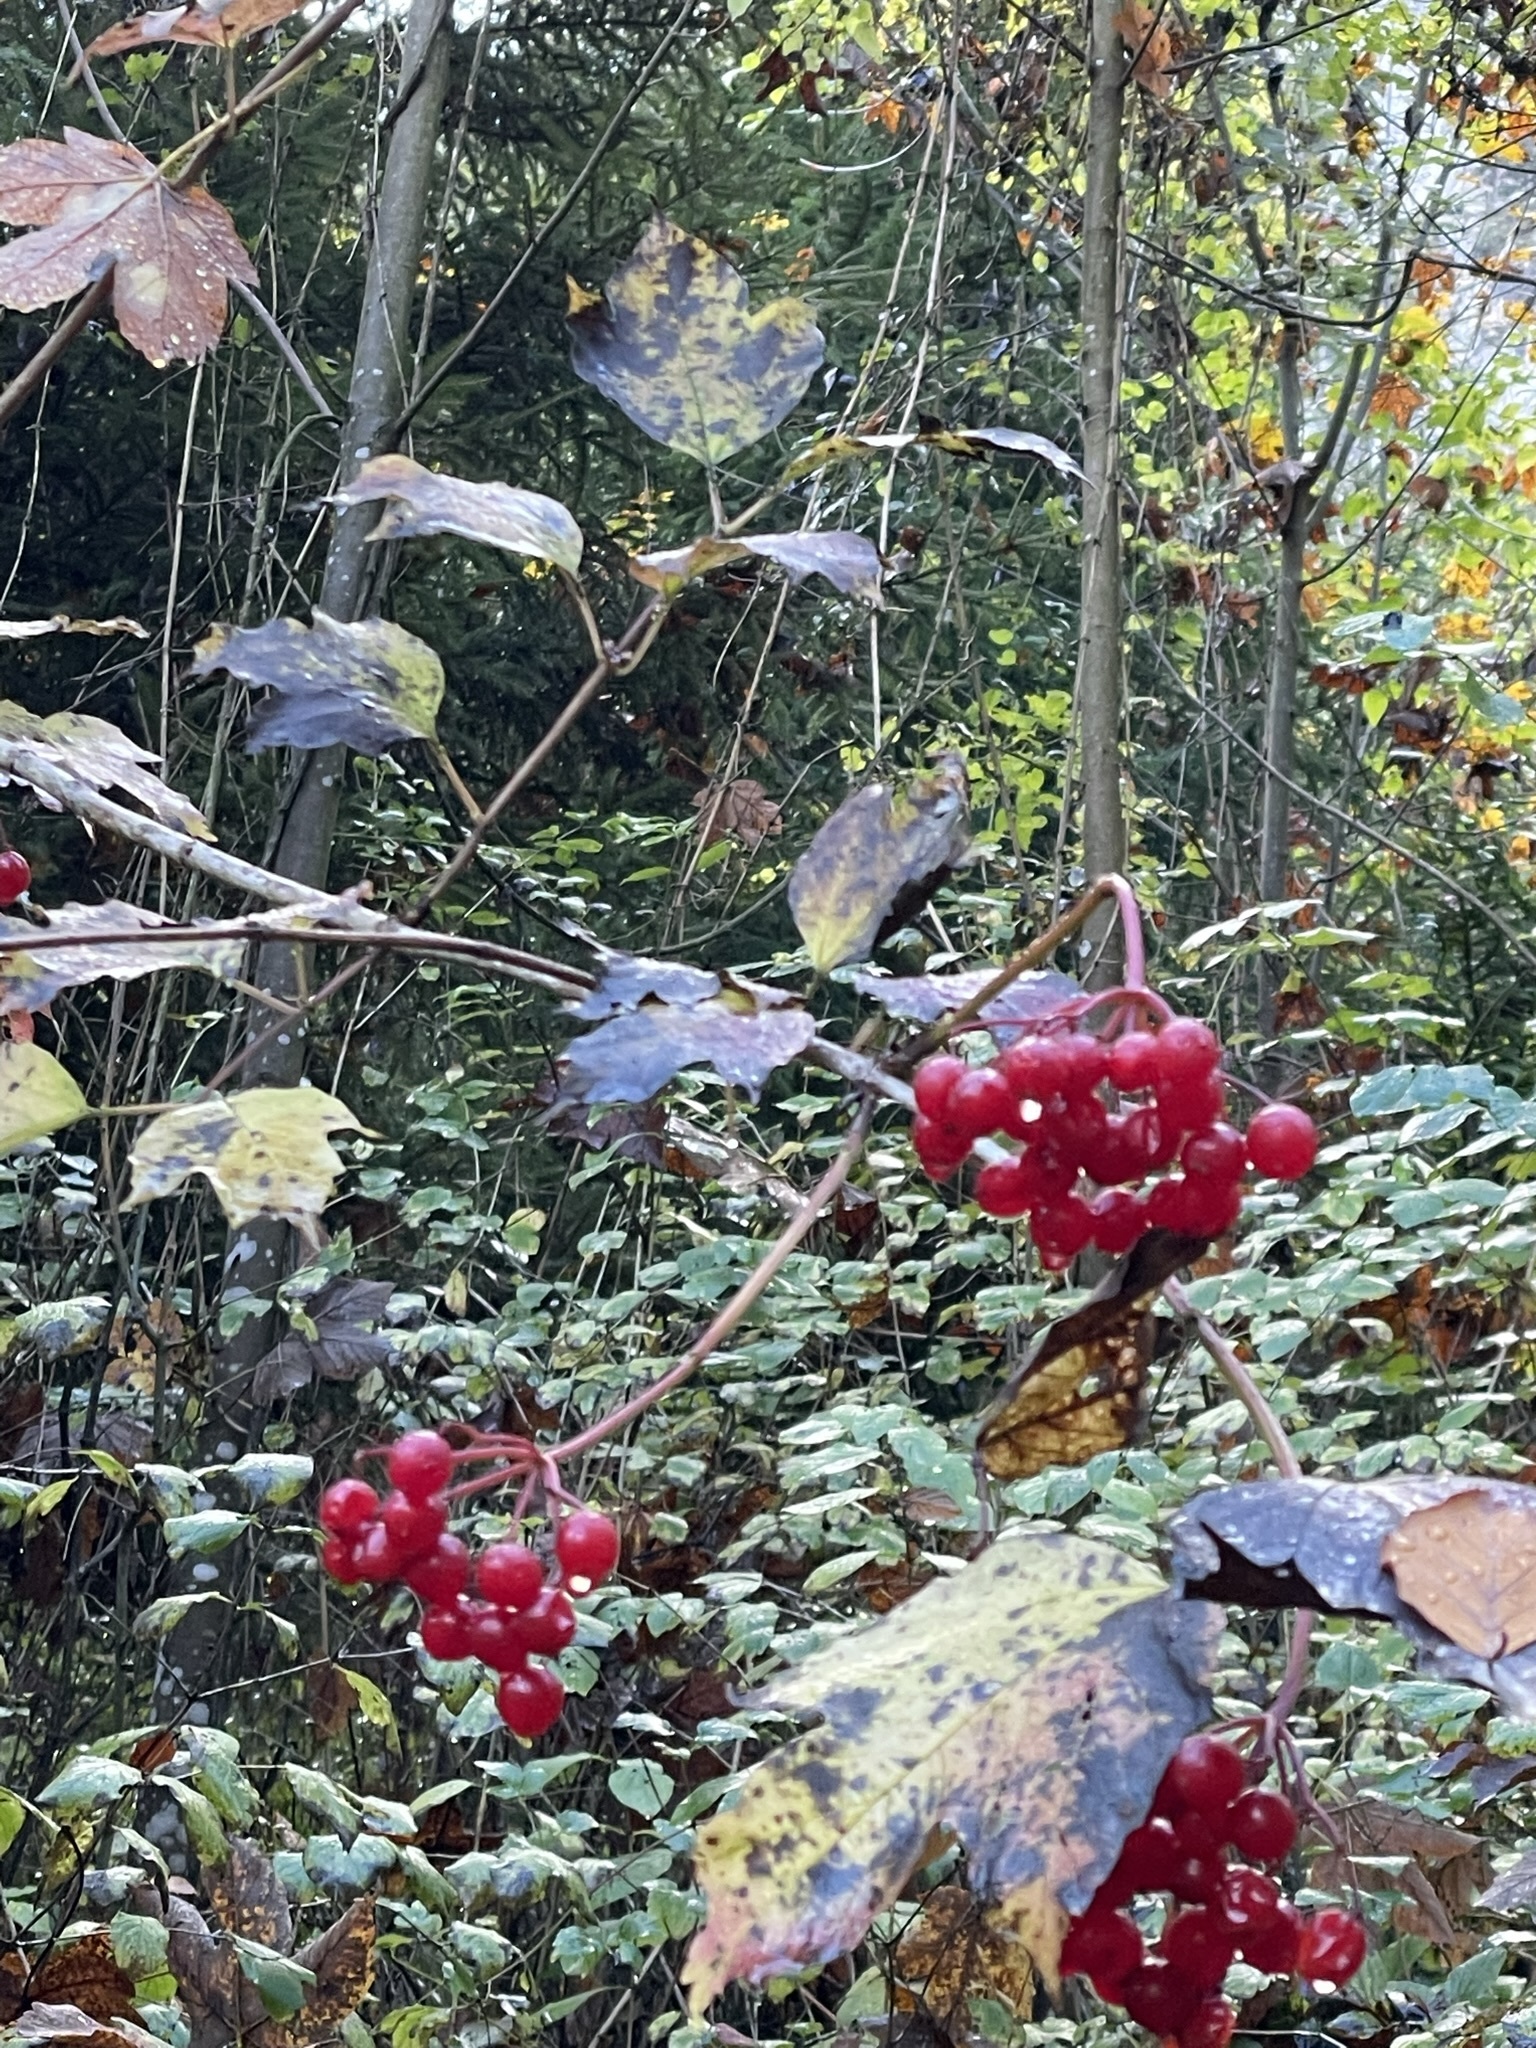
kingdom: Plantae
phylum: Tracheophyta
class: Magnoliopsida
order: Dipsacales
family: Viburnaceae
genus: Viburnum
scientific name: Viburnum opulus
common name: Guelder-rose
